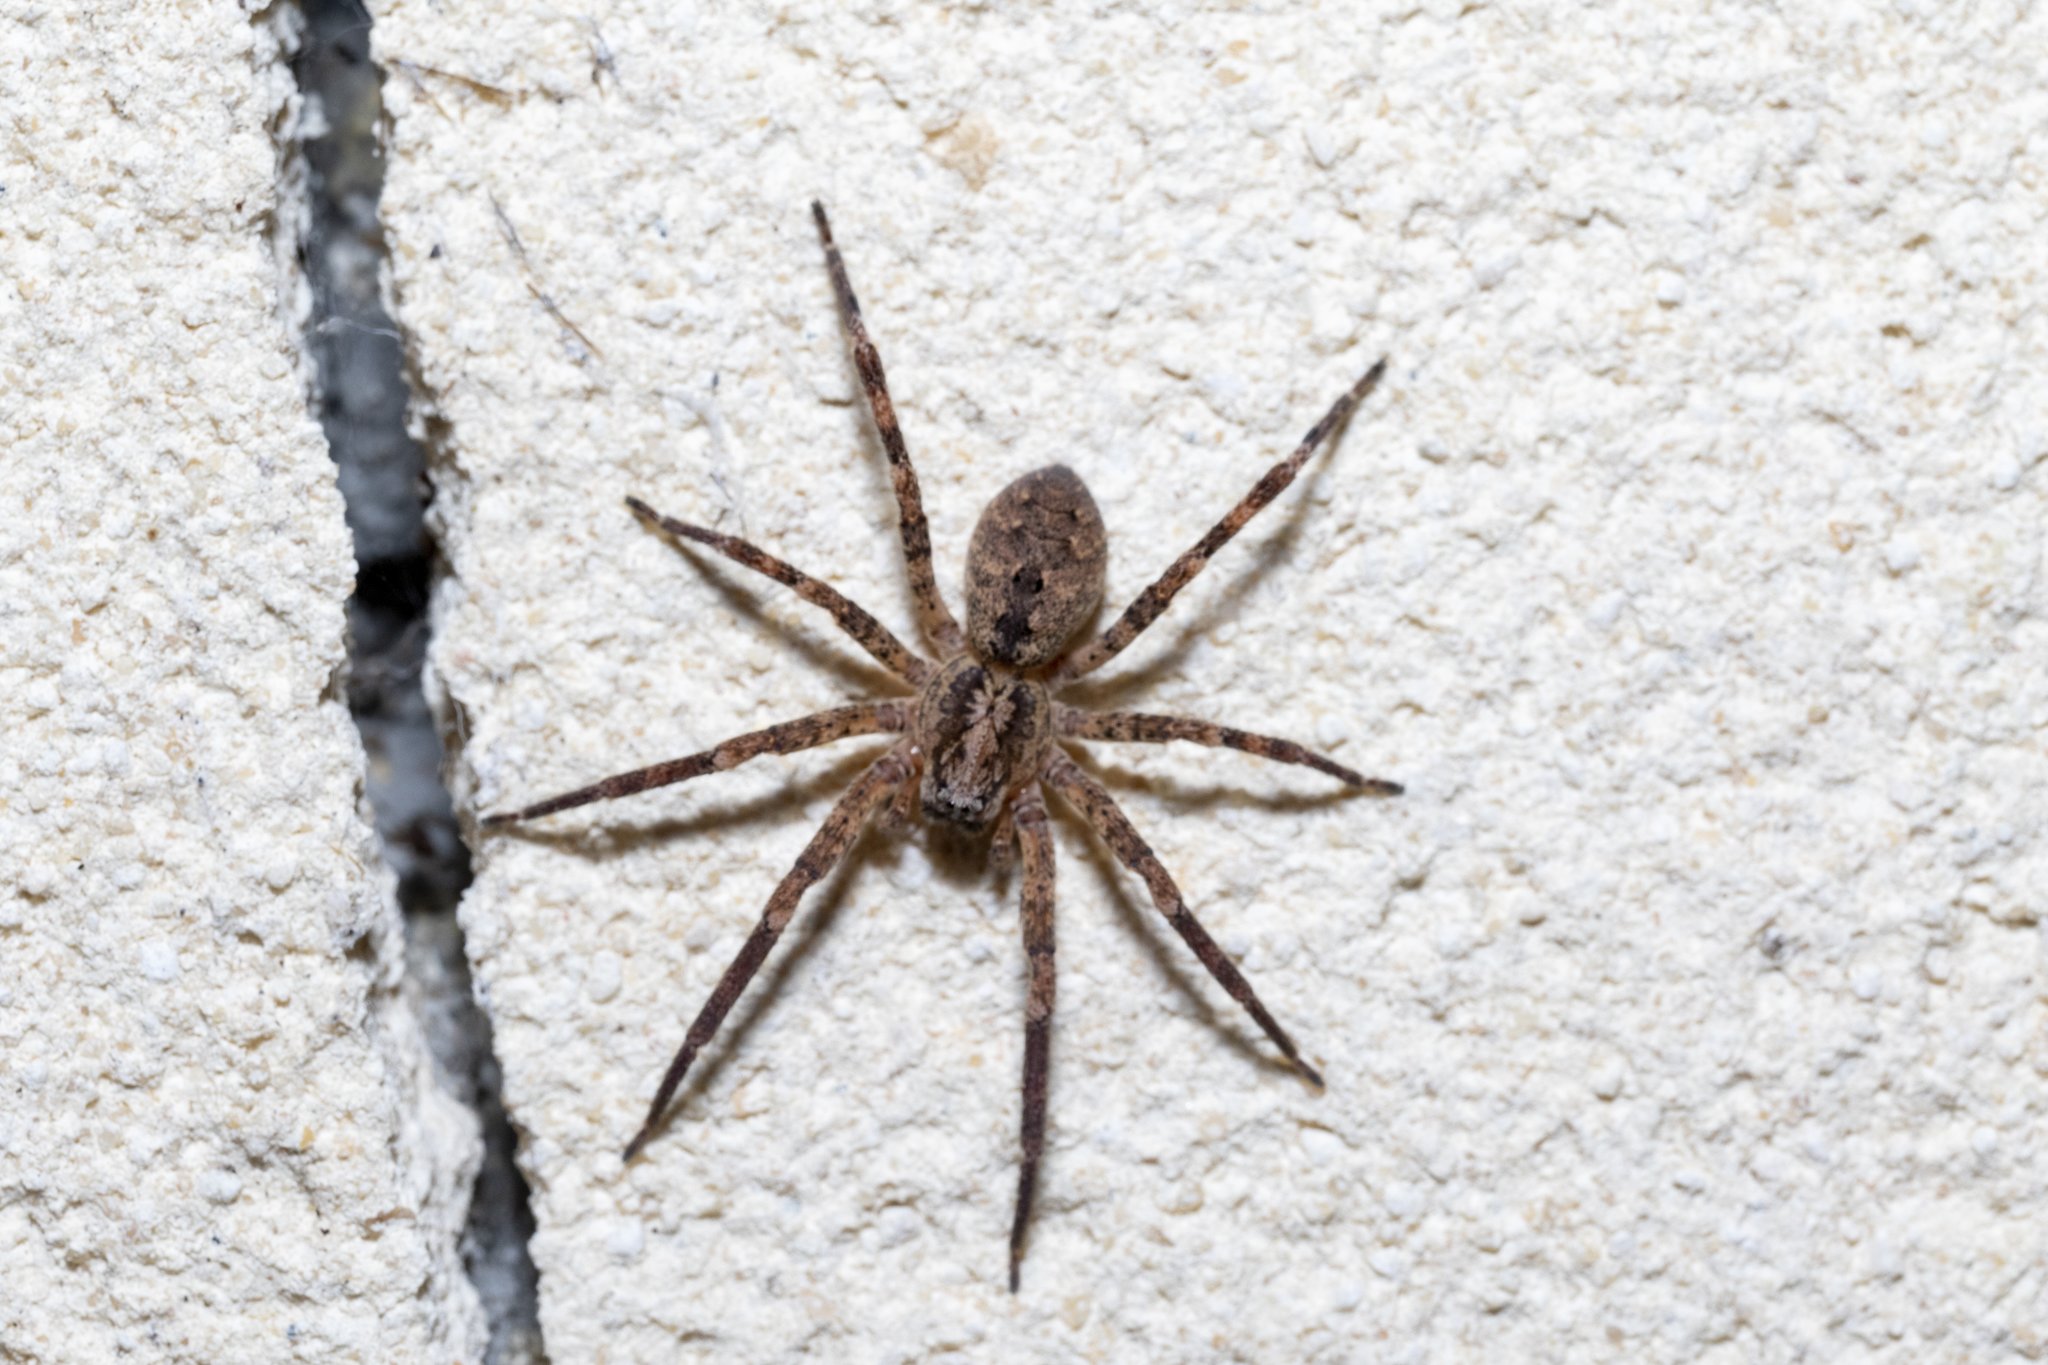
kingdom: Animalia
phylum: Arthropoda
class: Arachnida
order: Araneae
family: Zoropsidae
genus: Zoropsis
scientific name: Zoropsis spinimana
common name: Zoropsid spider
